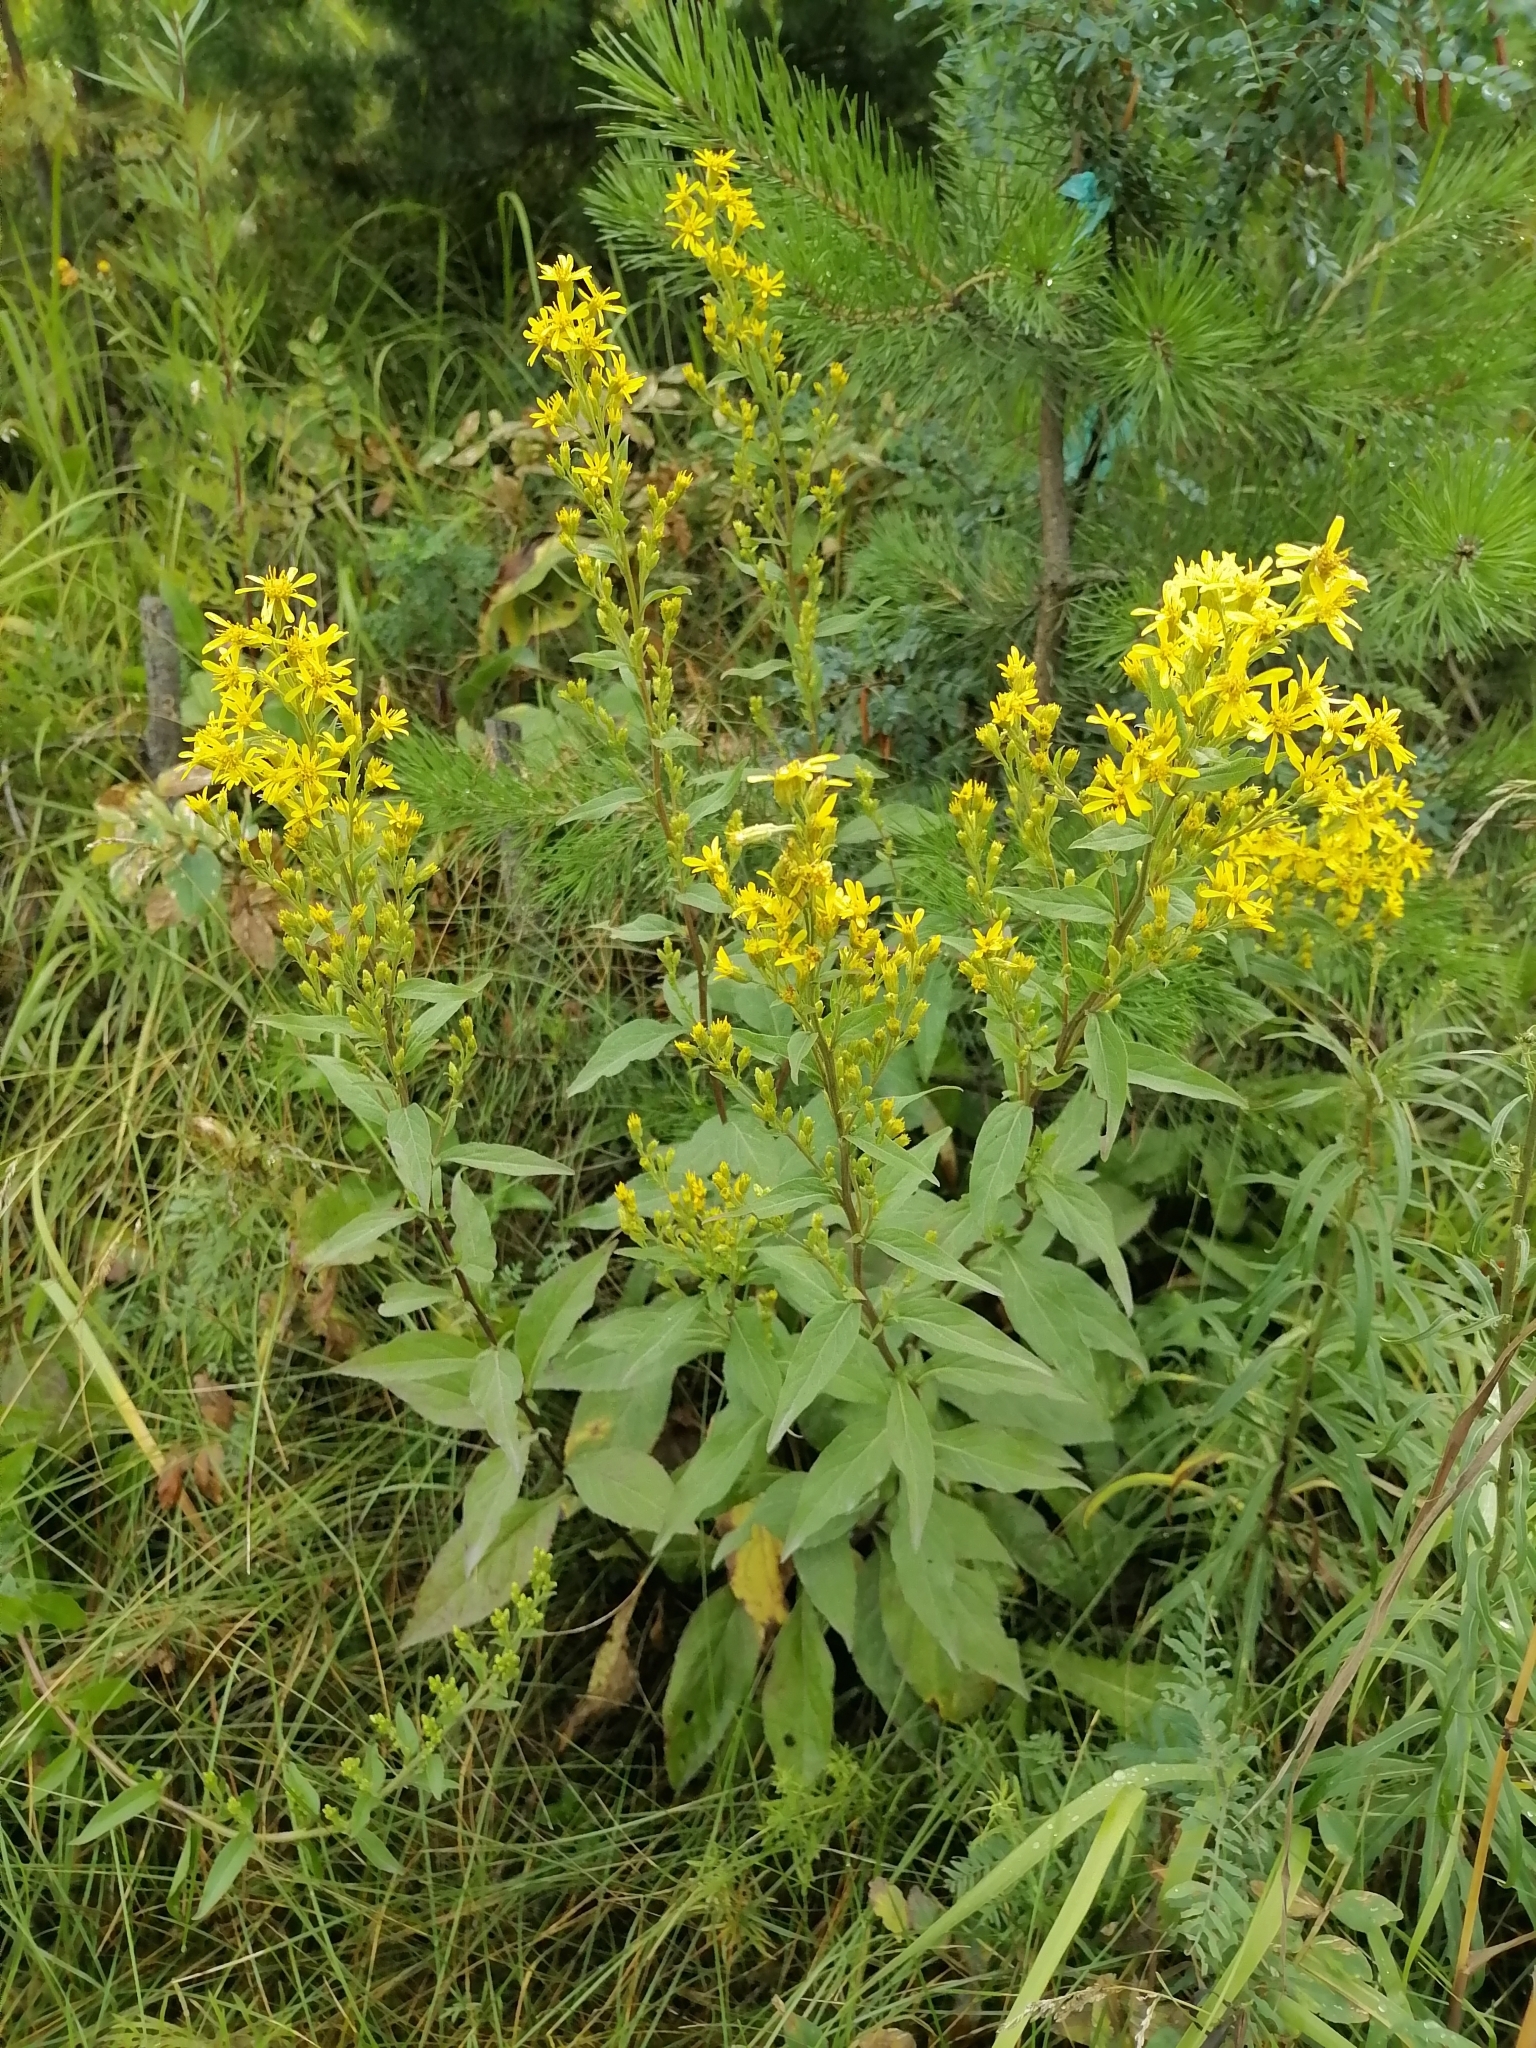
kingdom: Plantae
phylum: Tracheophyta
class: Magnoliopsida
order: Asterales
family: Asteraceae
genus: Solidago
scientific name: Solidago virgaurea
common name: Goldenrod
